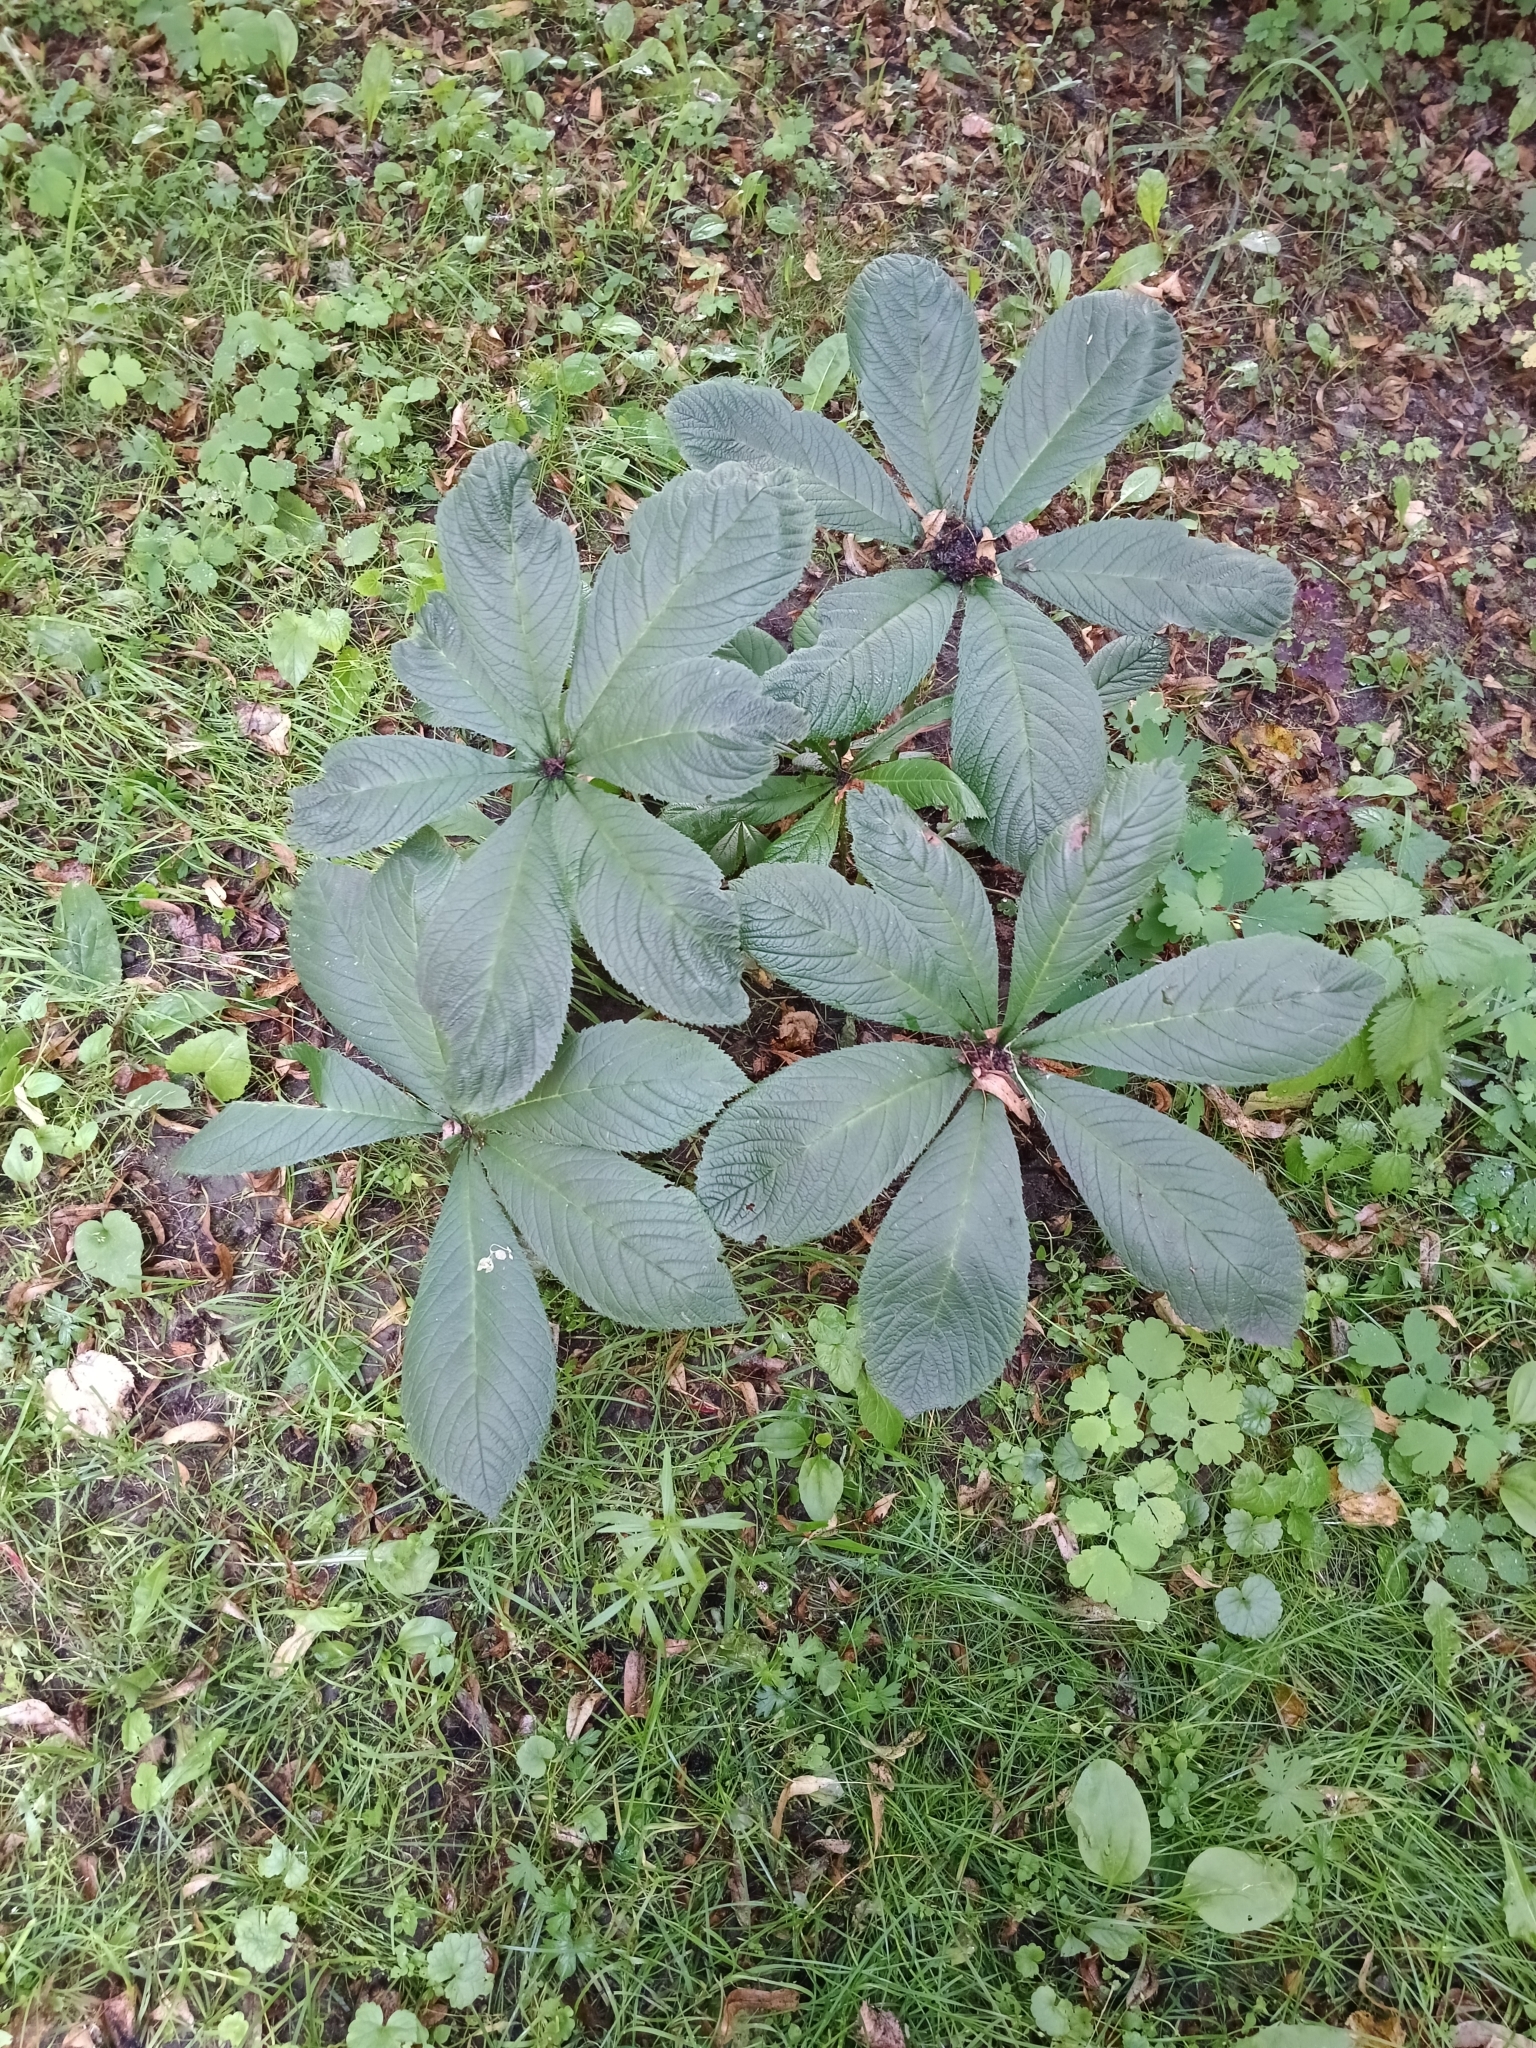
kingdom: Plantae
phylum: Tracheophyta
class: Magnoliopsida
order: Sapindales
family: Sapindaceae
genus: Aesculus
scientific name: Aesculus hippocastanum
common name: Horse-chestnut
